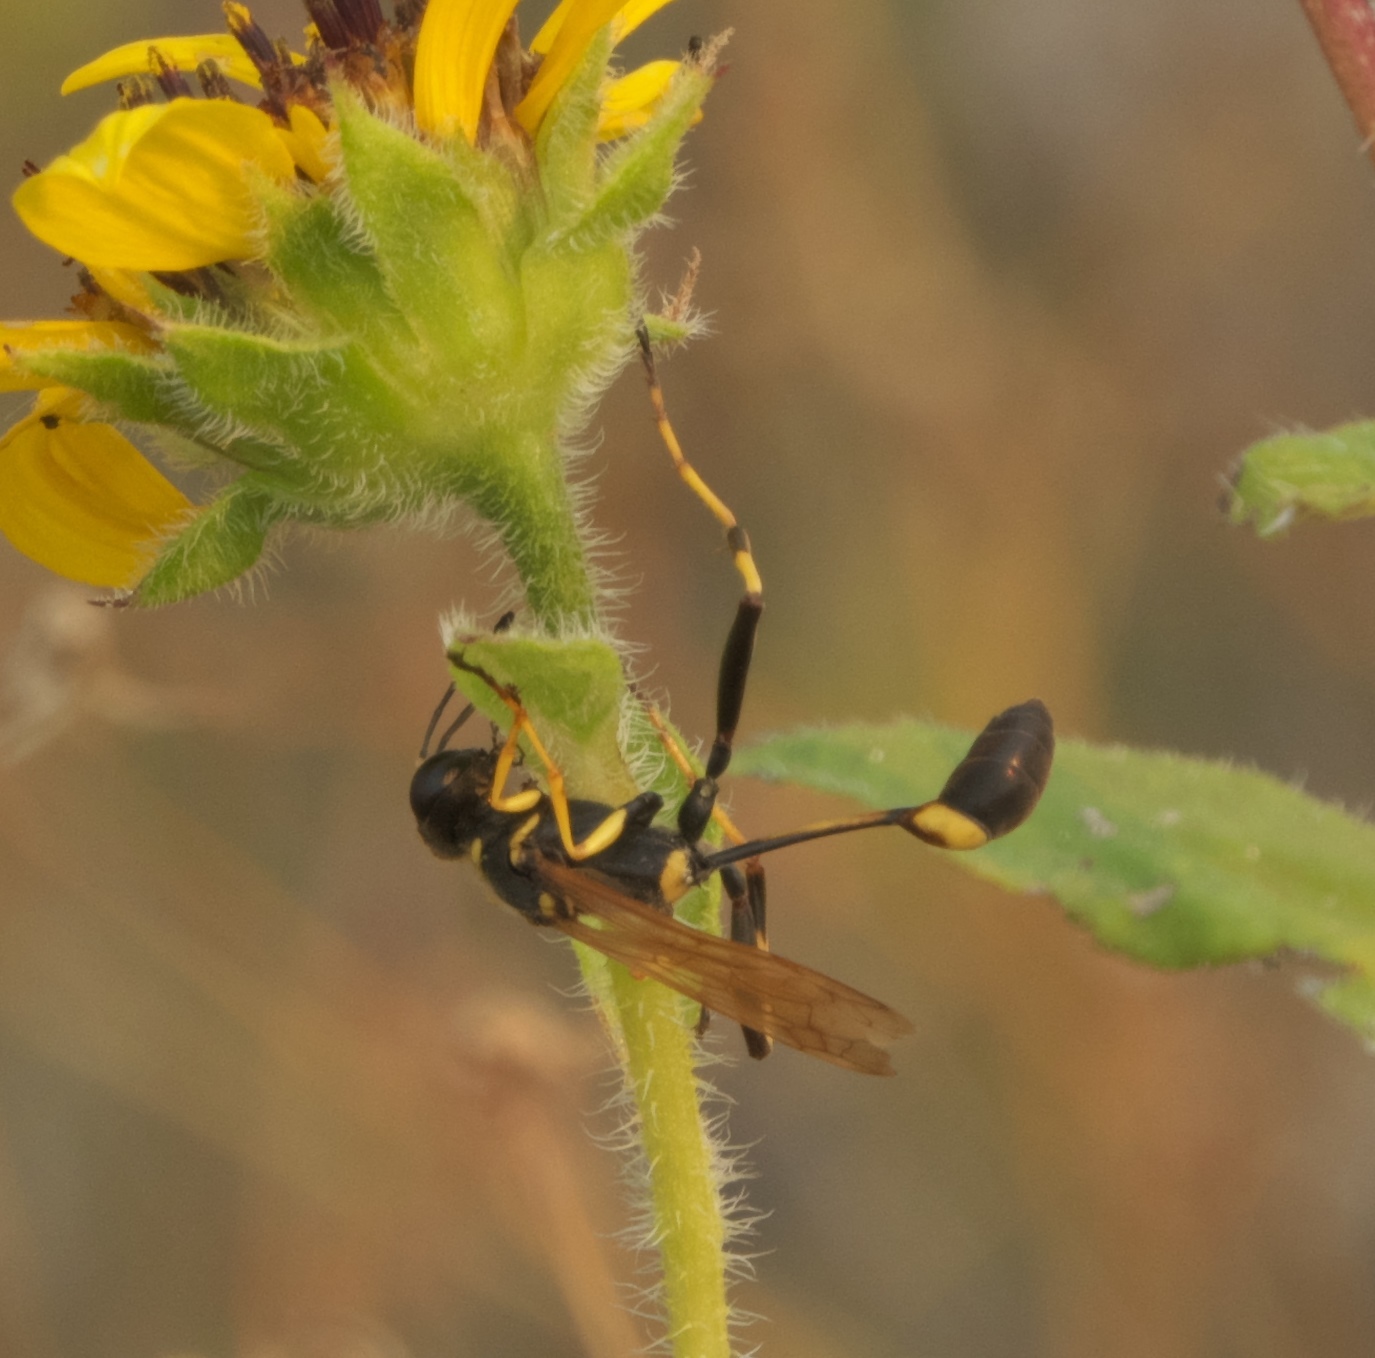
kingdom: Animalia
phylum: Arthropoda
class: Insecta
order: Hymenoptera
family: Sphecidae
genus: Sceliphron
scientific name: Sceliphron caementarium
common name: Mud dauber
